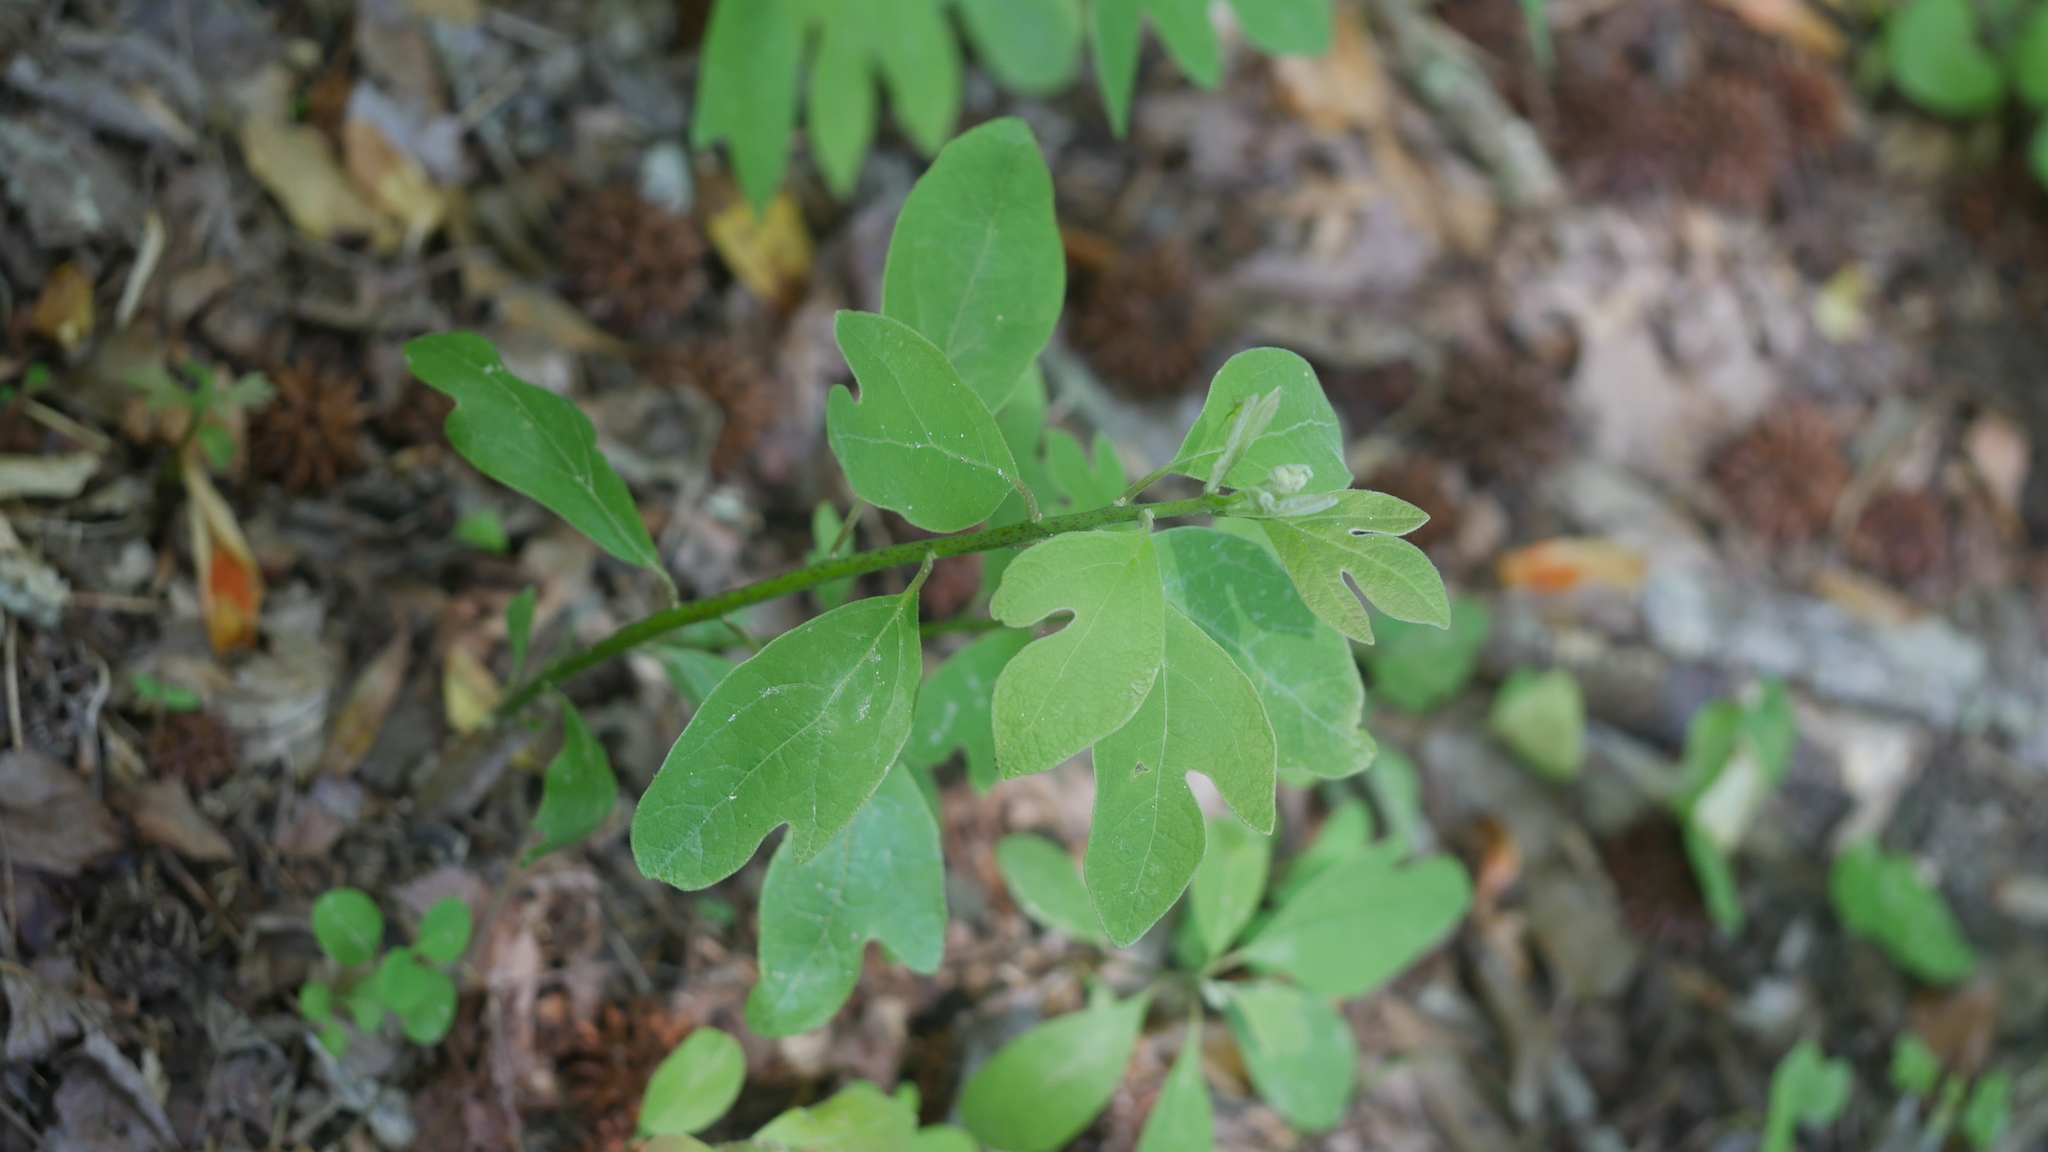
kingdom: Plantae
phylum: Tracheophyta
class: Magnoliopsida
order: Laurales
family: Lauraceae
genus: Sassafras
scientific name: Sassafras albidum
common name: Sassafras
